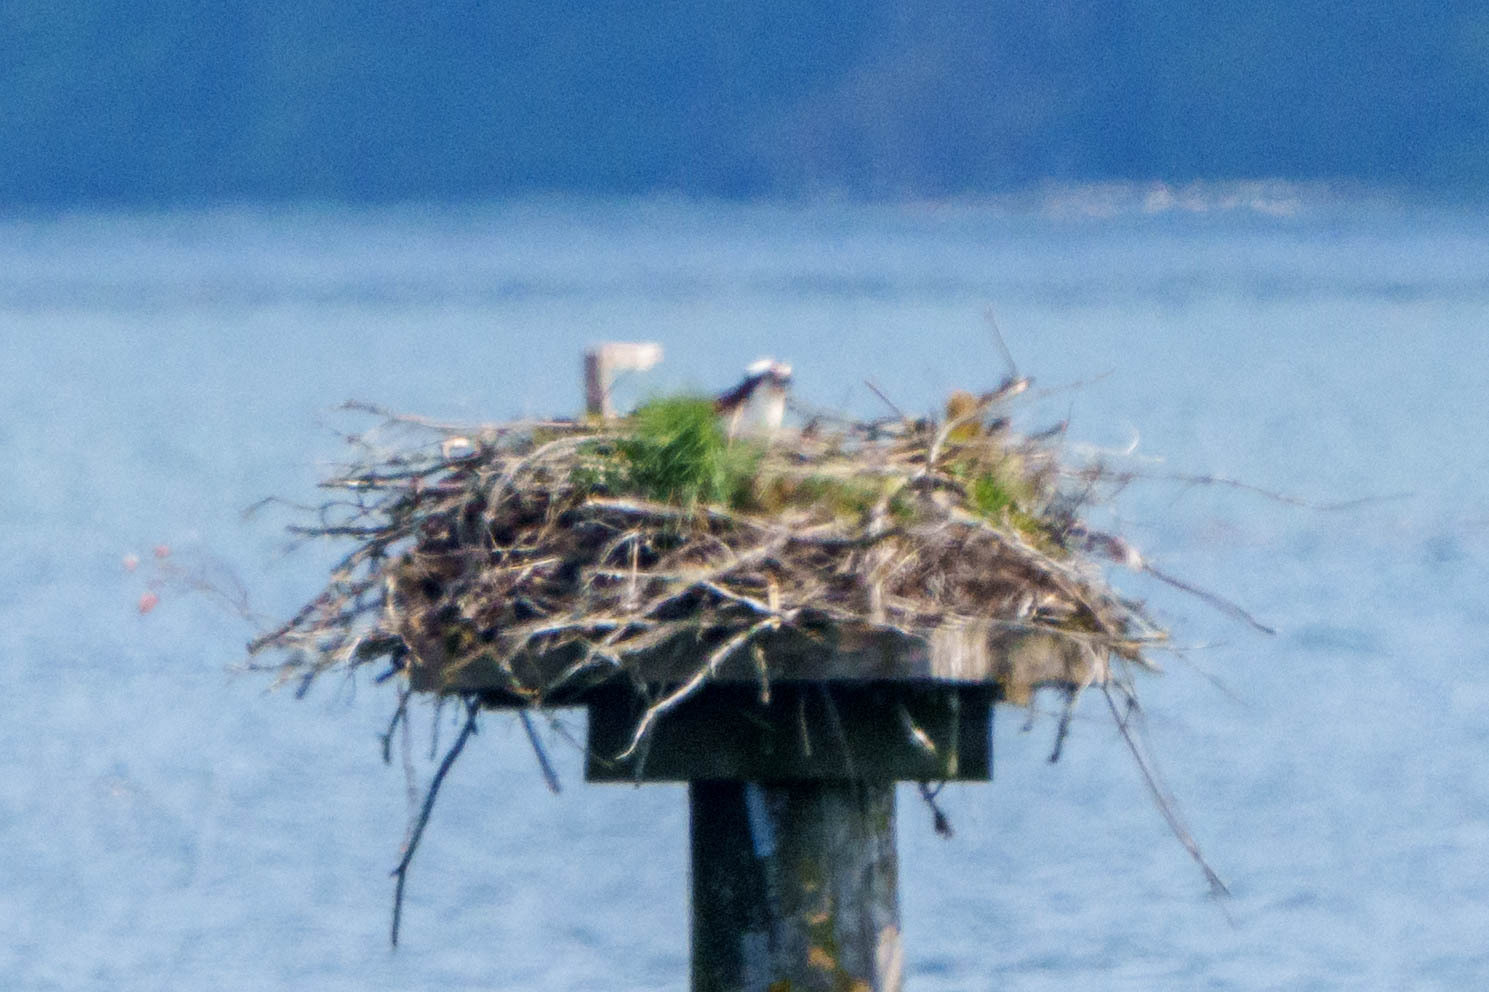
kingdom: Animalia
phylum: Chordata
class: Aves
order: Accipitriformes
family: Pandionidae
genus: Pandion
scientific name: Pandion haliaetus
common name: Osprey
